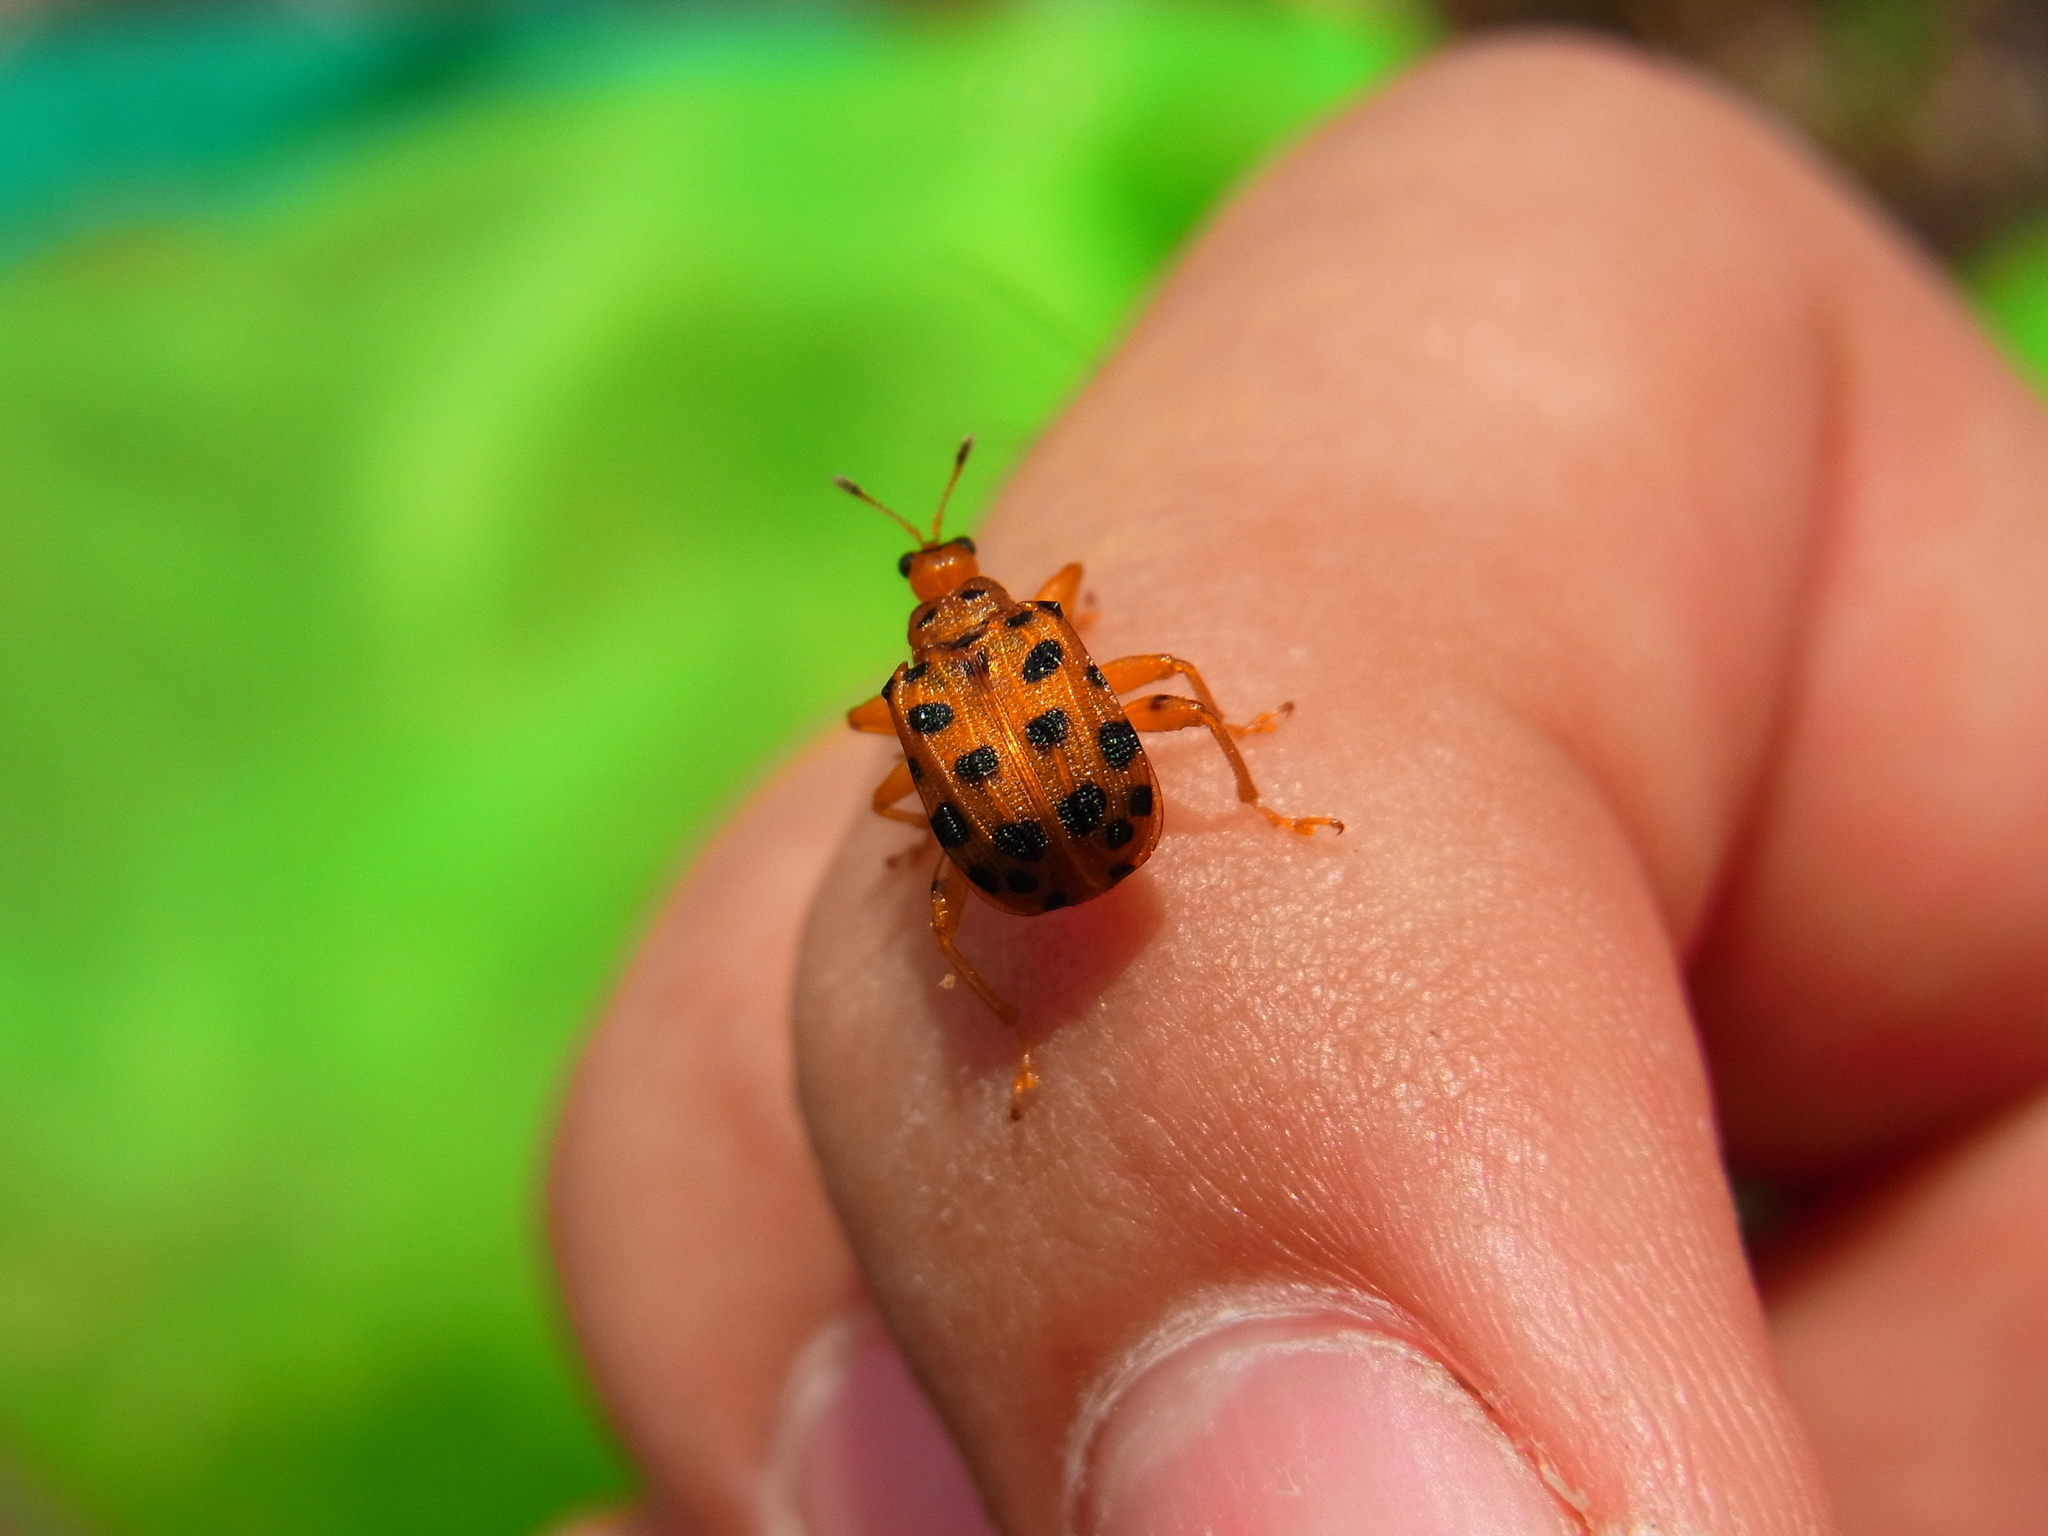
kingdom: Animalia
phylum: Arthropoda
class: Insecta
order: Coleoptera
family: Attelabidae
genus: Agomadaranus
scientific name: Agomadaranus
